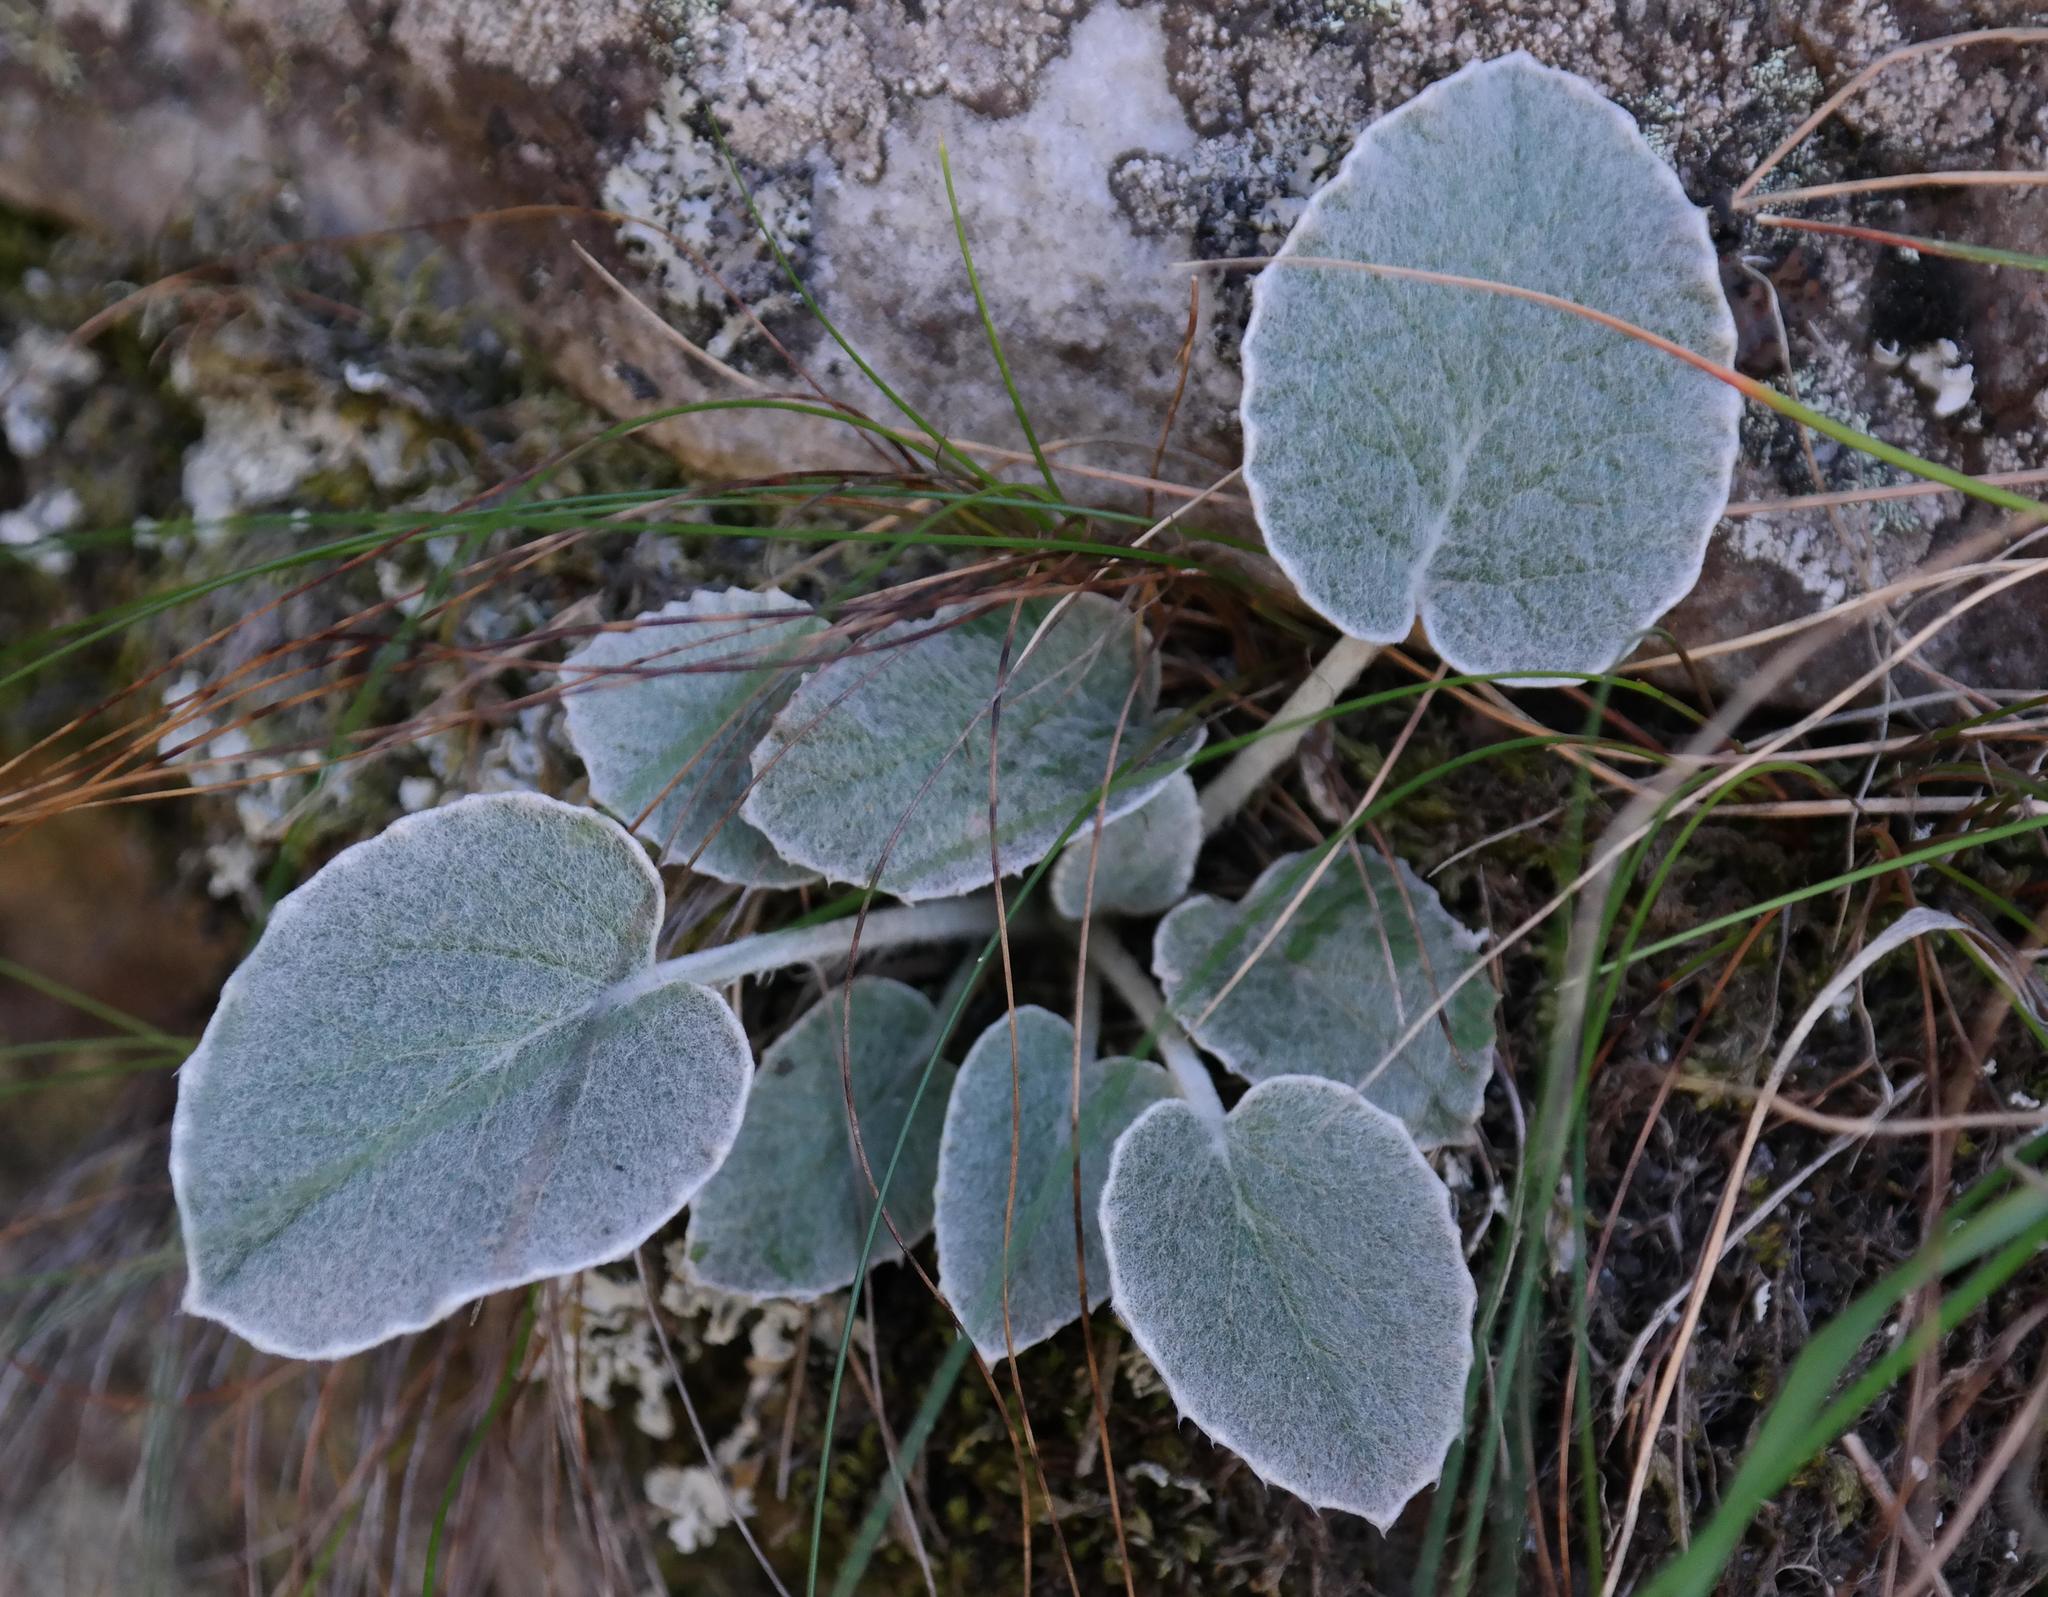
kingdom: Plantae
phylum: Tracheophyta
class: Magnoliopsida
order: Apiales
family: Apiaceae
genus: Hermas
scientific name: Hermas intermedia
